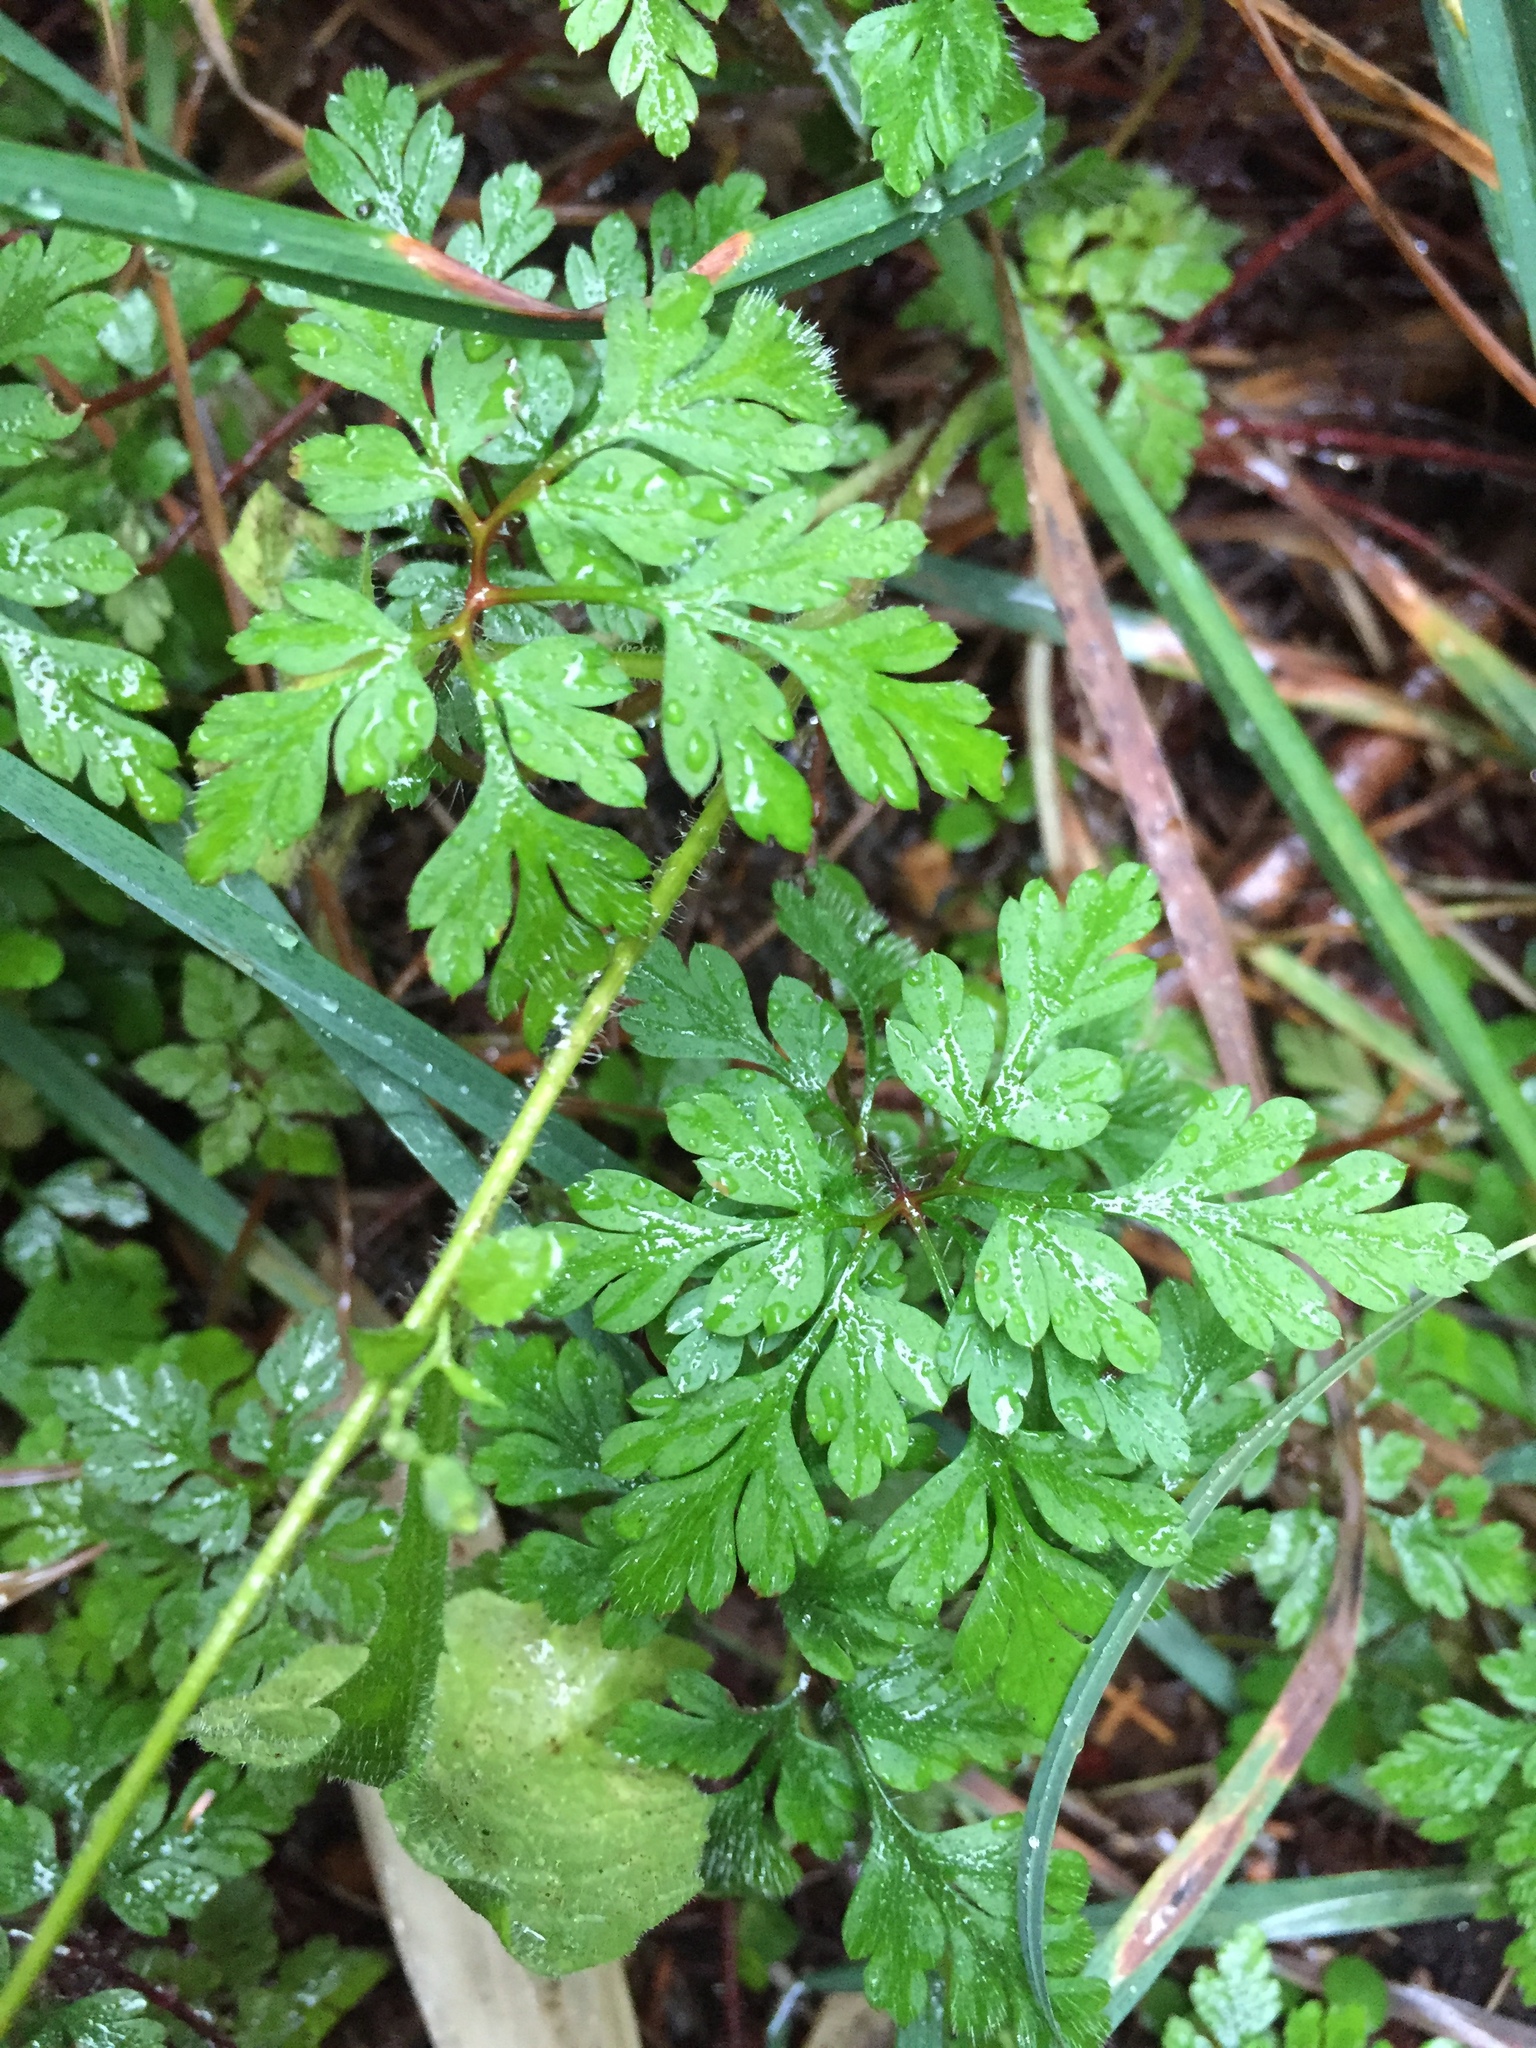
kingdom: Plantae
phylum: Tracheophyta
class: Magnoliopsida
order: Geraniales
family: Geraniaceae
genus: Geranium
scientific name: Geranium robertianum
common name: Herb-robert
